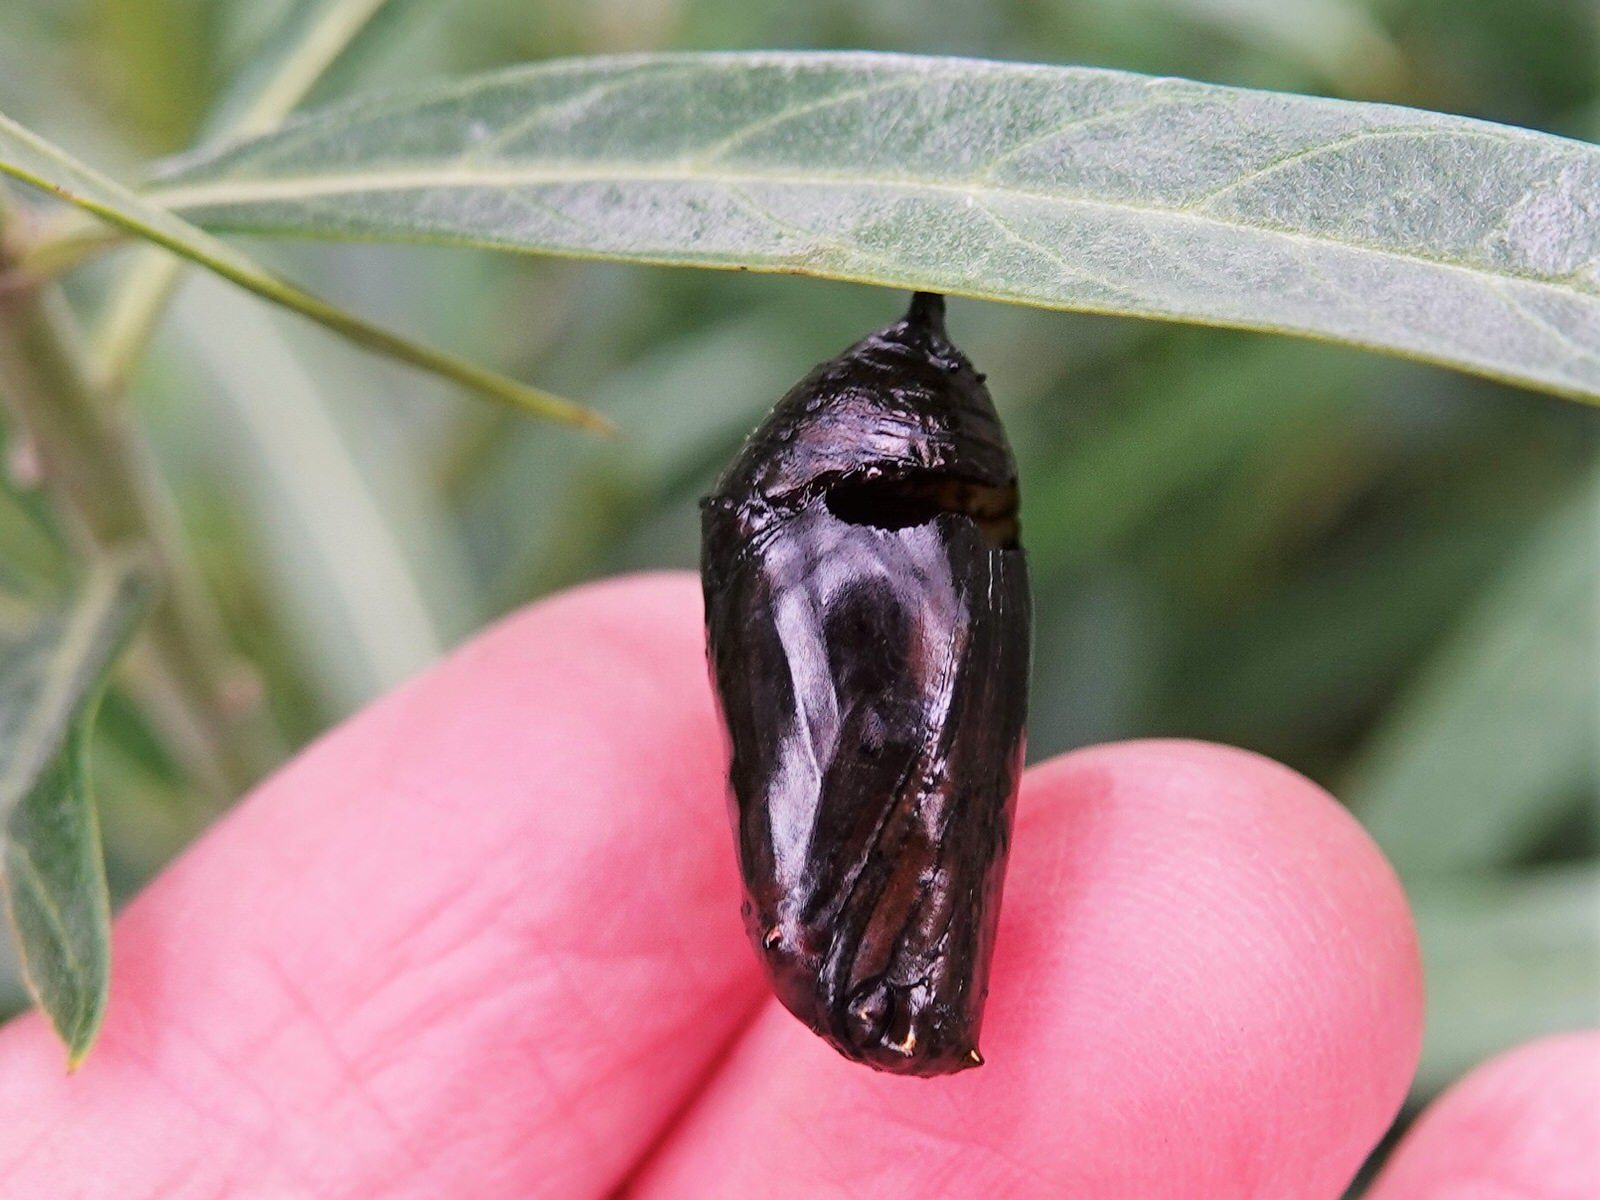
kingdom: Animalia
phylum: Arthropoda
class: Insecta
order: Lepidoptera
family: Nymphalidae
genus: Danaus
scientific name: Danaus plexippus
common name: Monarch
